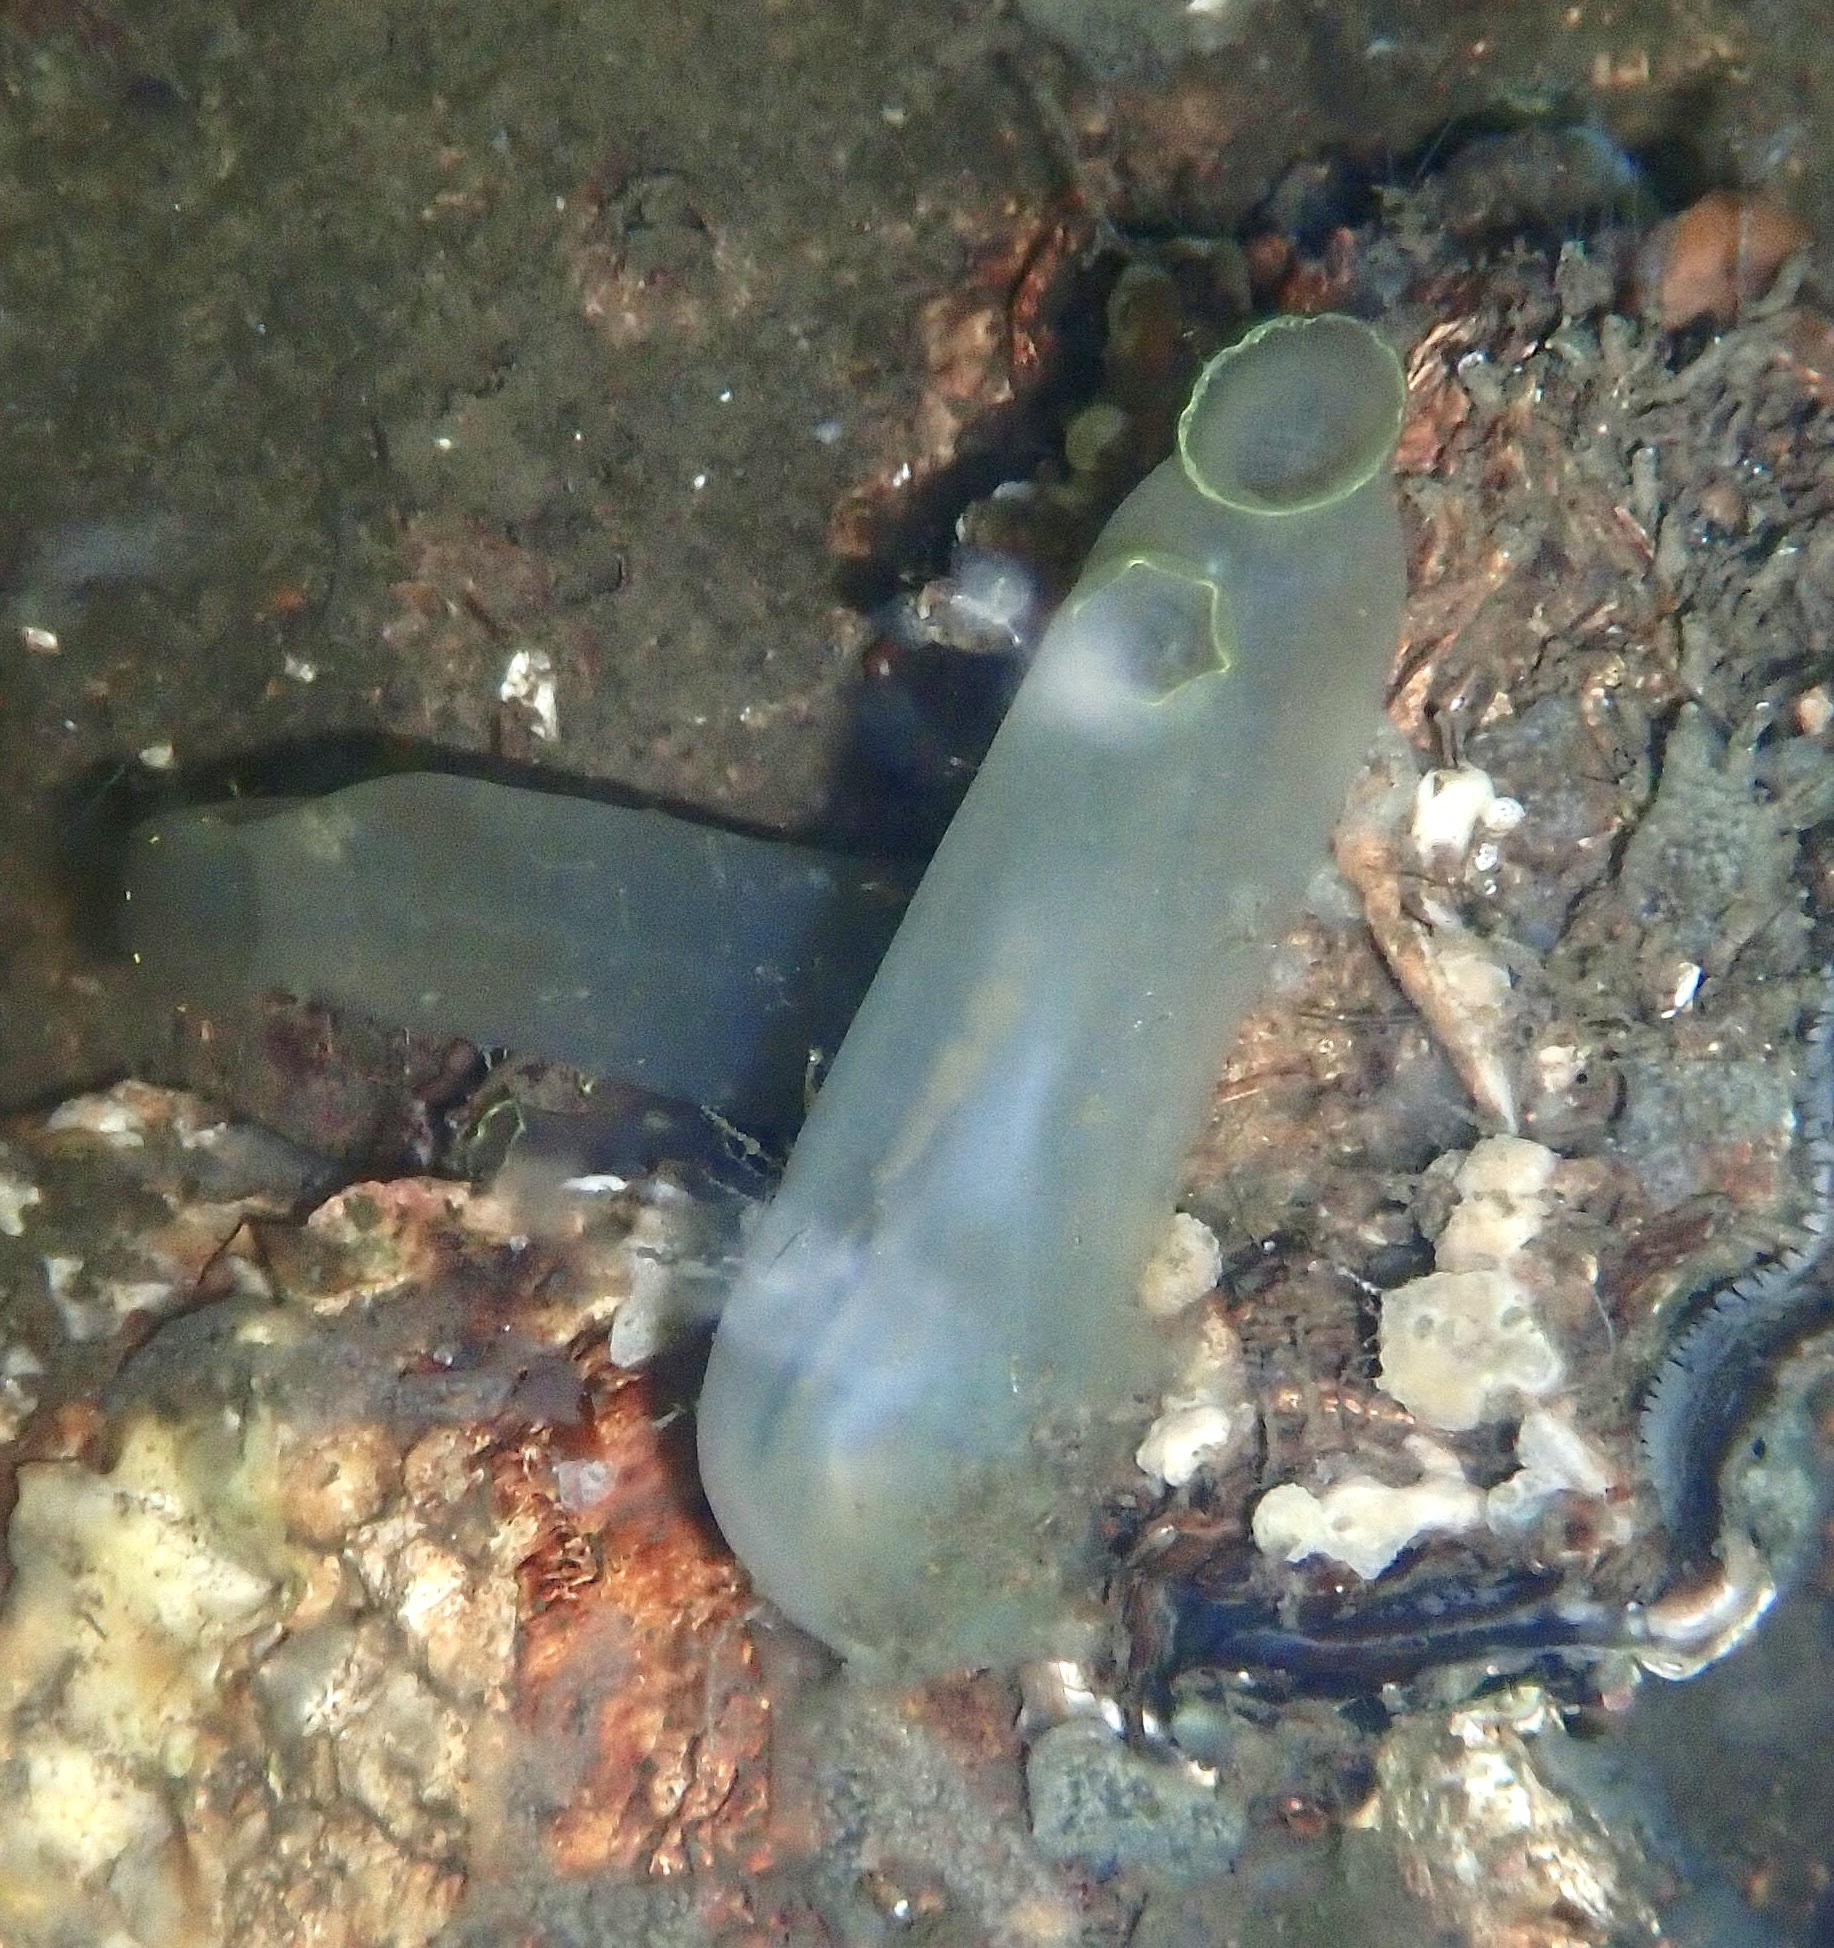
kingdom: Animalia
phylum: Chordata
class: Ascidiacea
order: Phlebobranchia
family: Cionidae
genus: Ciona
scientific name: Ciona intestinalis
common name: Vase tunicate
